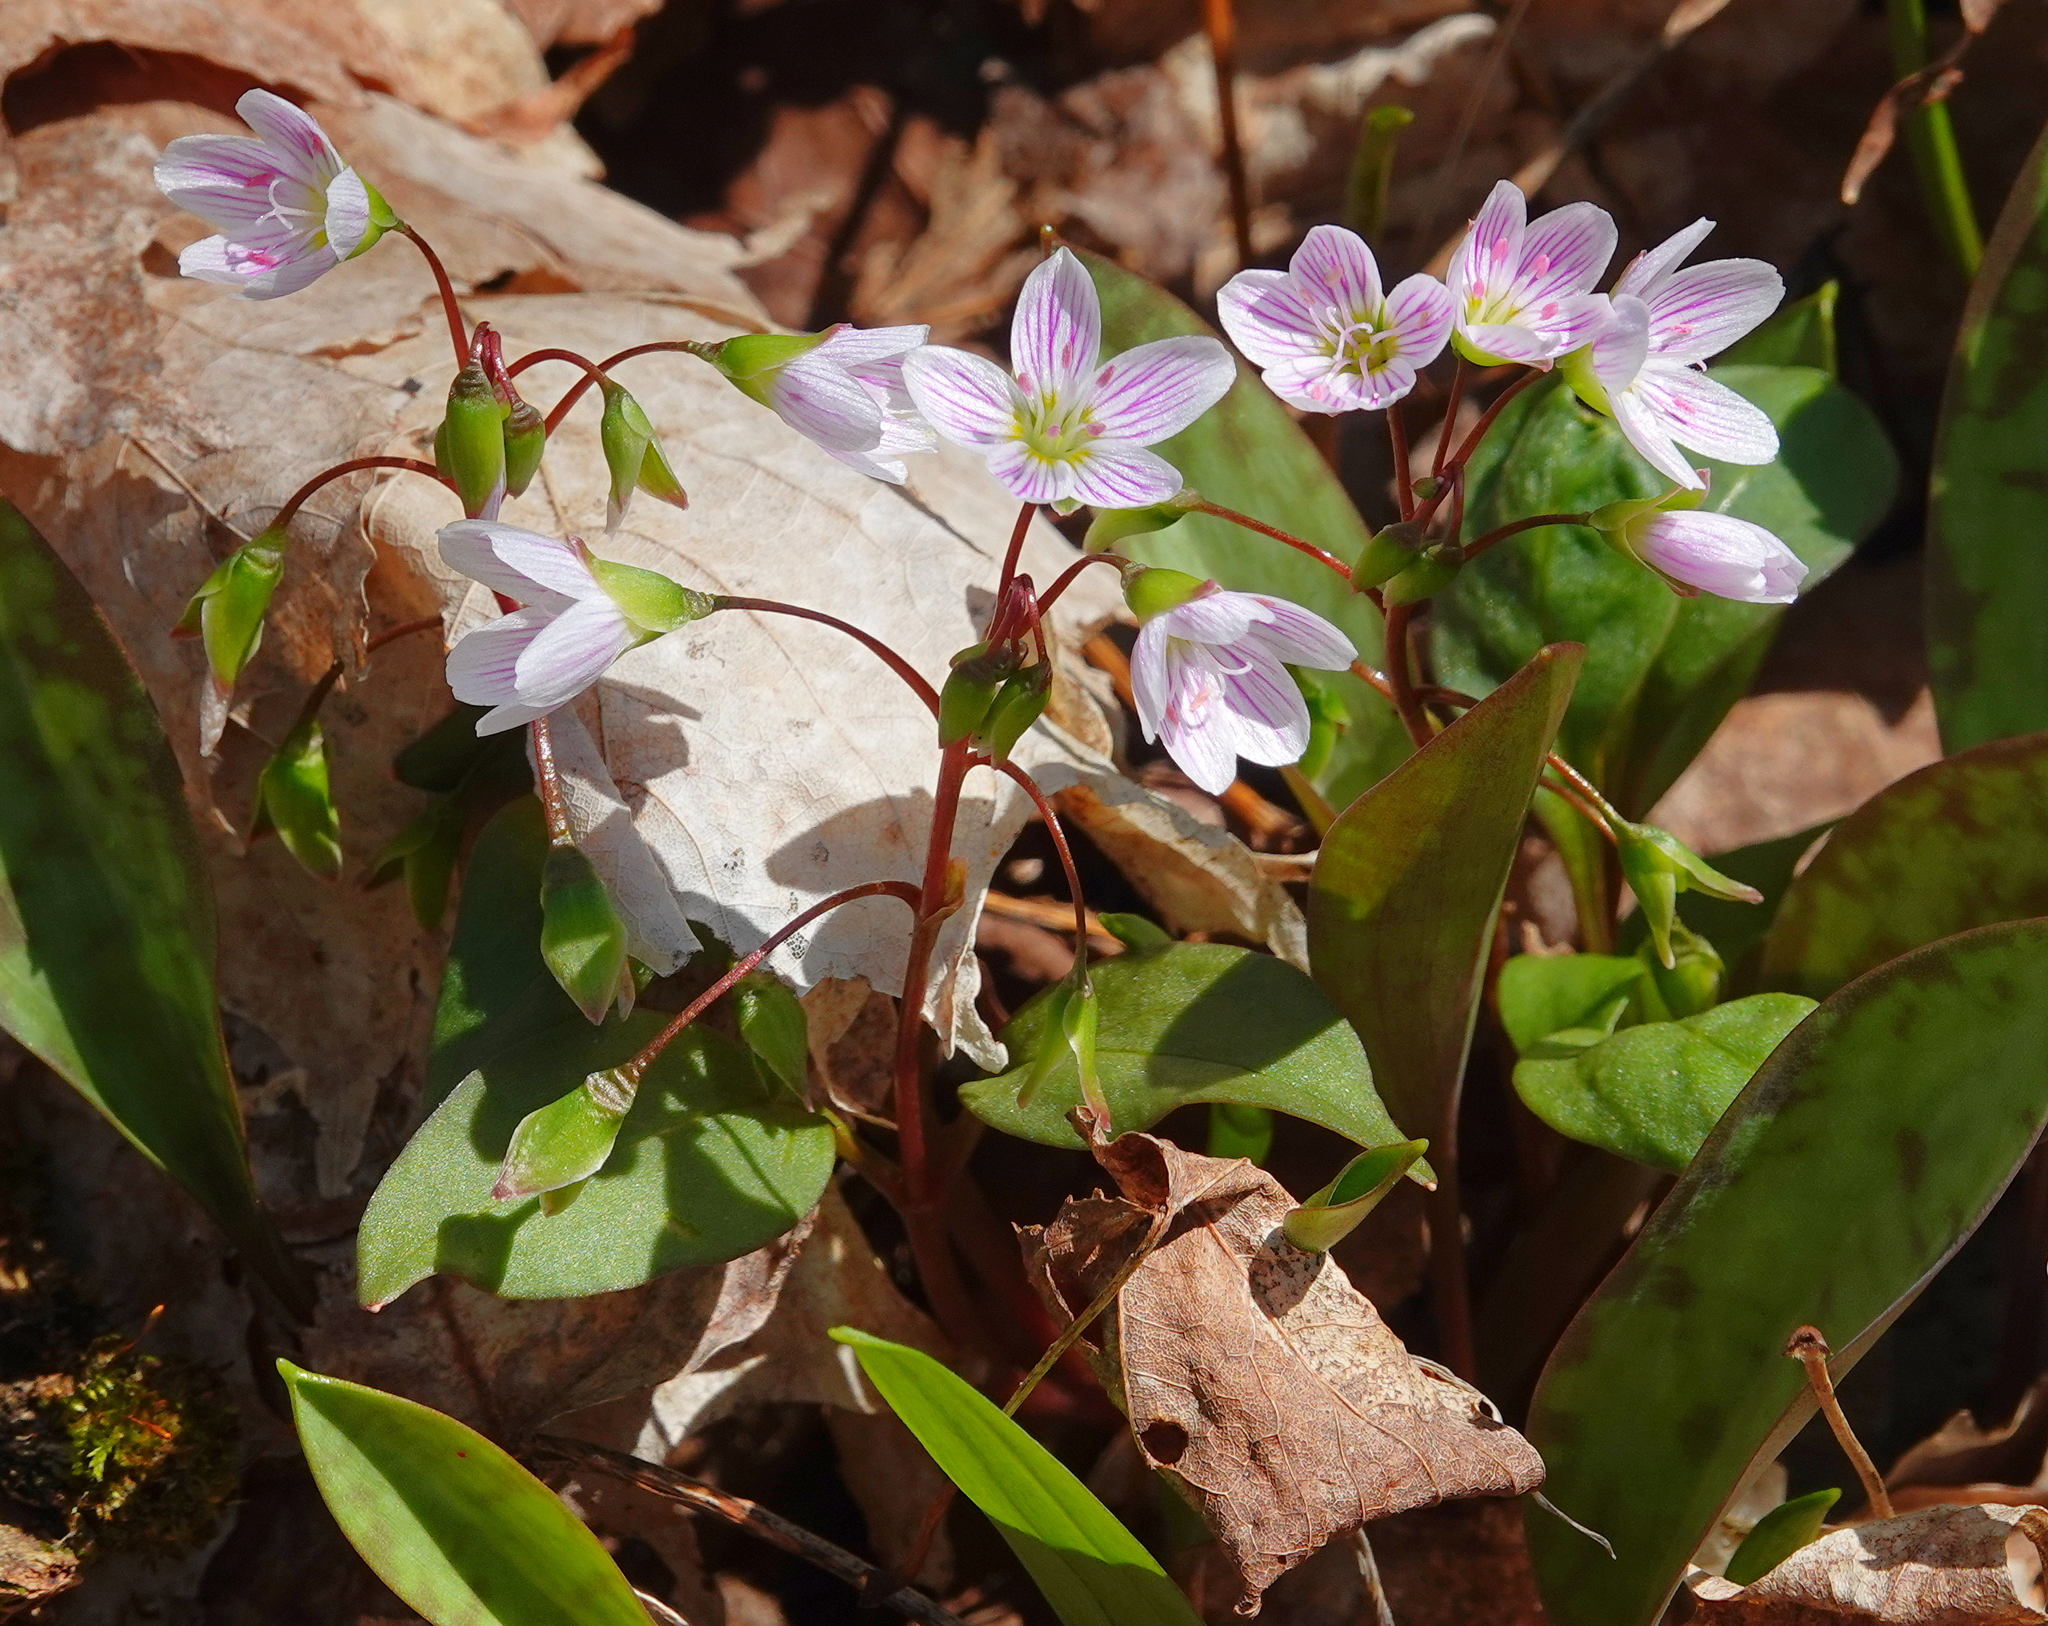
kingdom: Plantae
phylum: Tracheophyta
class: Magnoliopsida
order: Caryophyllales
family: Montiaceae
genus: Claytonia
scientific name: Claytonia caroliniana
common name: Carolina spring beauty
